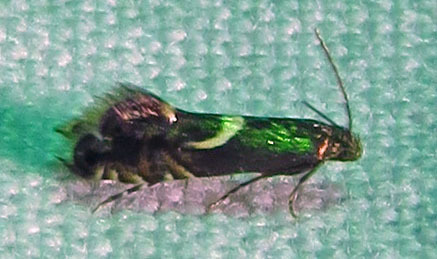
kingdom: Animalia
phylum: Arthropoda
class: Insecta
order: Lepidoptera
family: Glyphipterigidae
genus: Glyphipterix
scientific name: Glyphipterix Diploschizia impigritella
